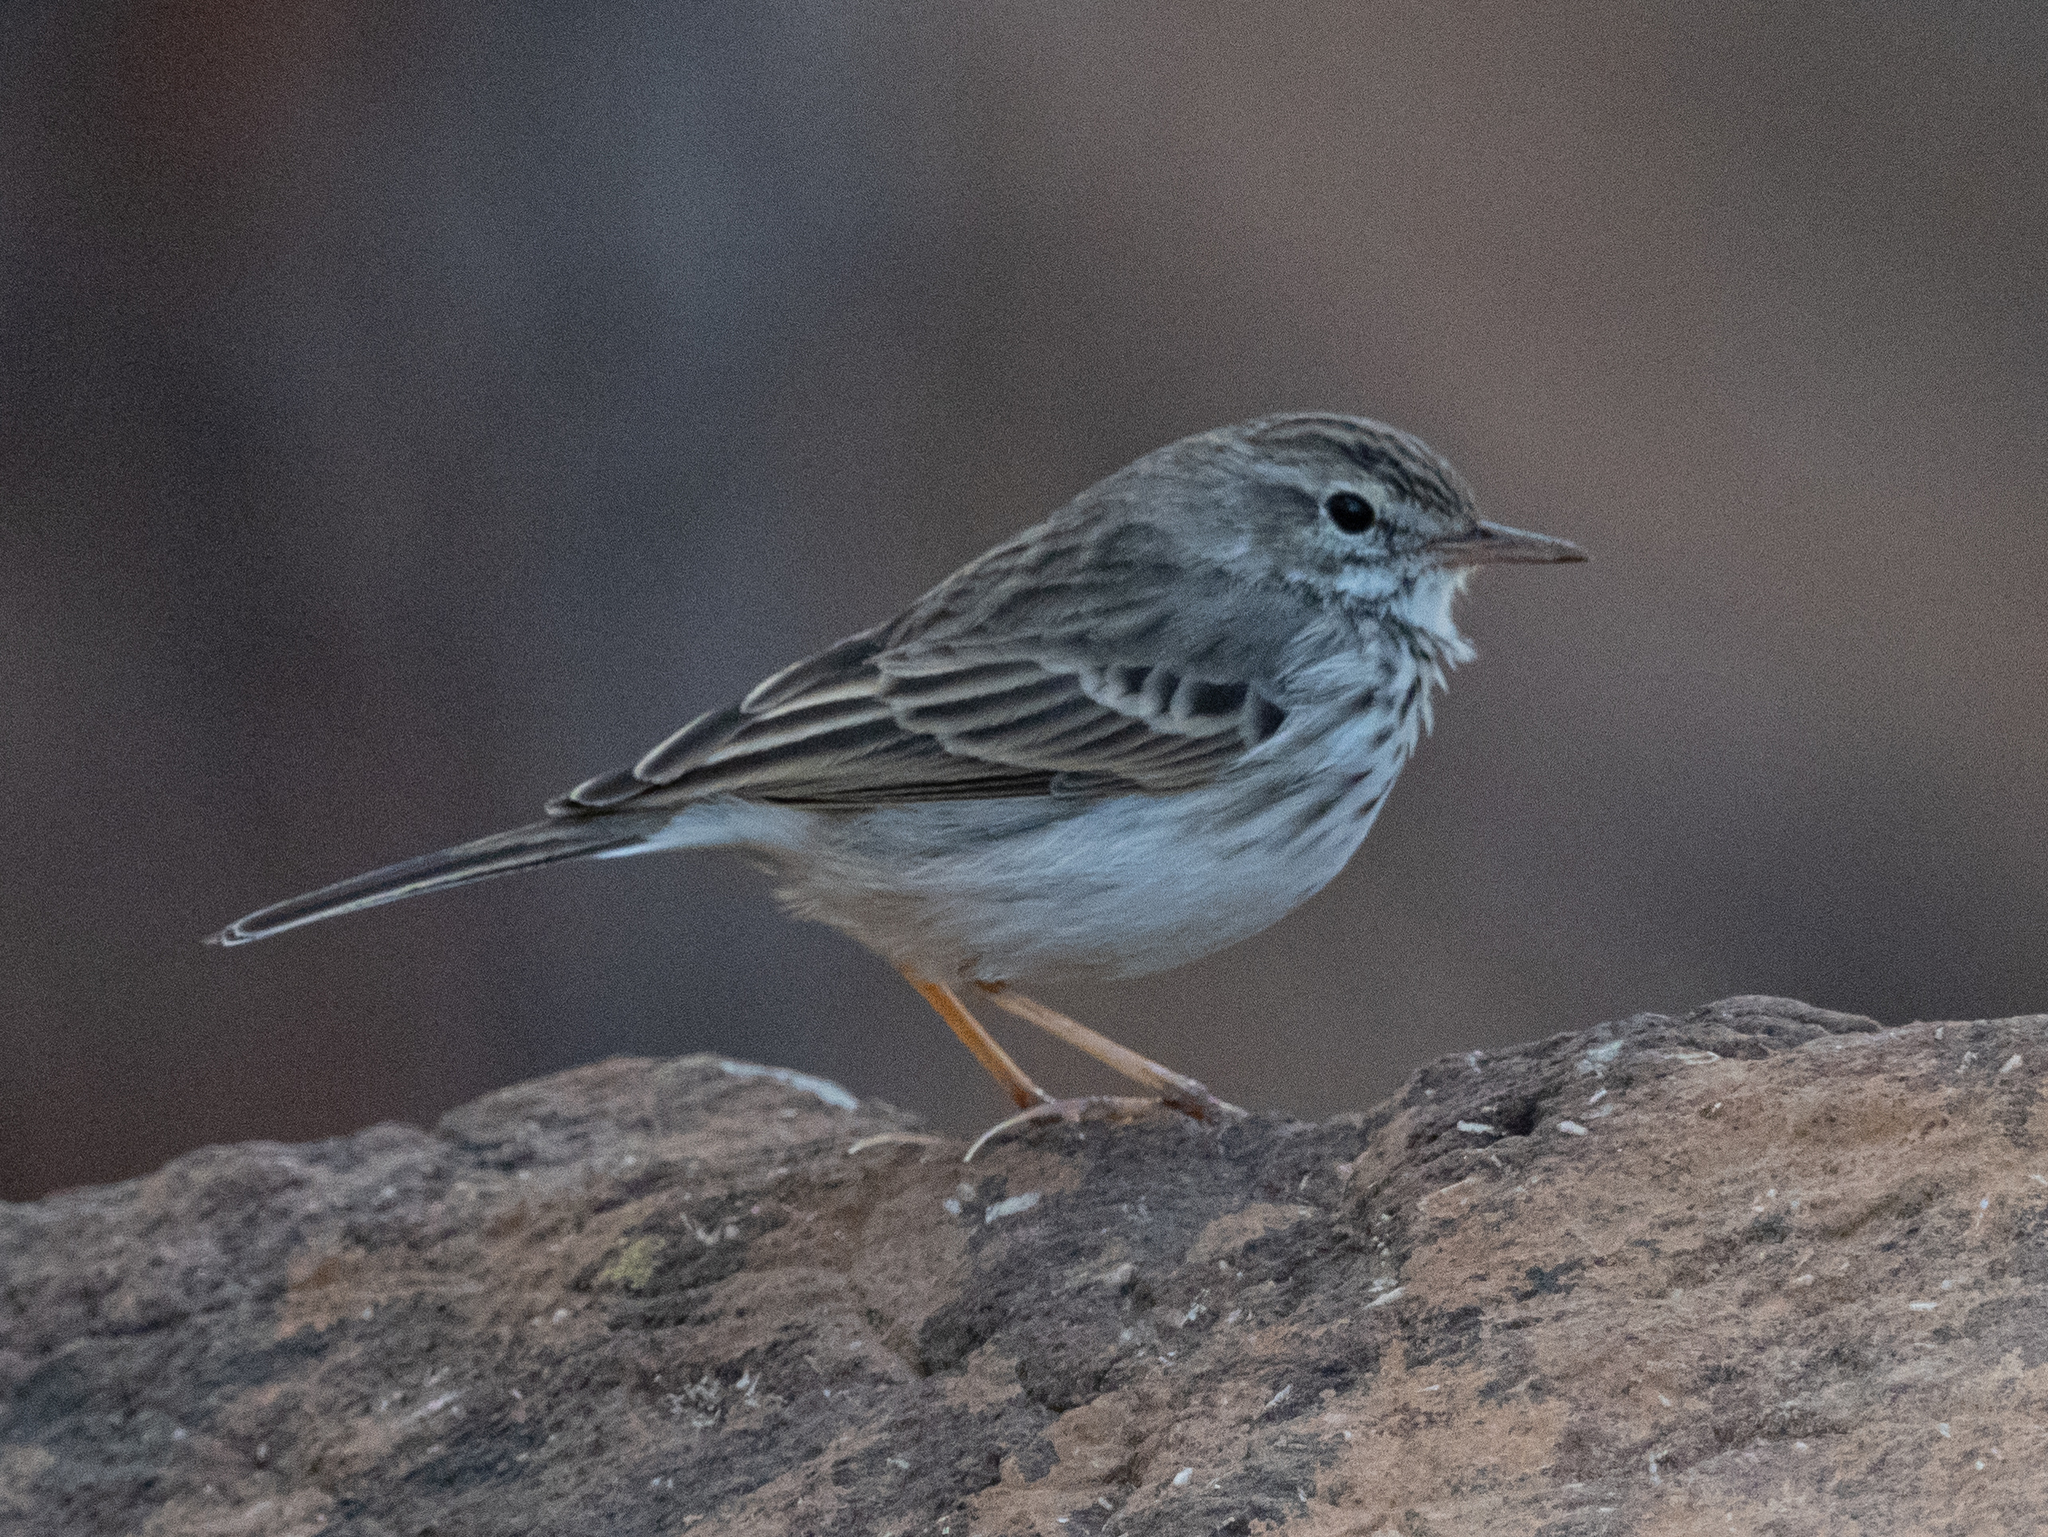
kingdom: Animalia
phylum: Chordata
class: Aves
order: Passeriformes
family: Motacillidae
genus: Anthus
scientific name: Anthus berthelotii
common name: Berthelot's pipit
